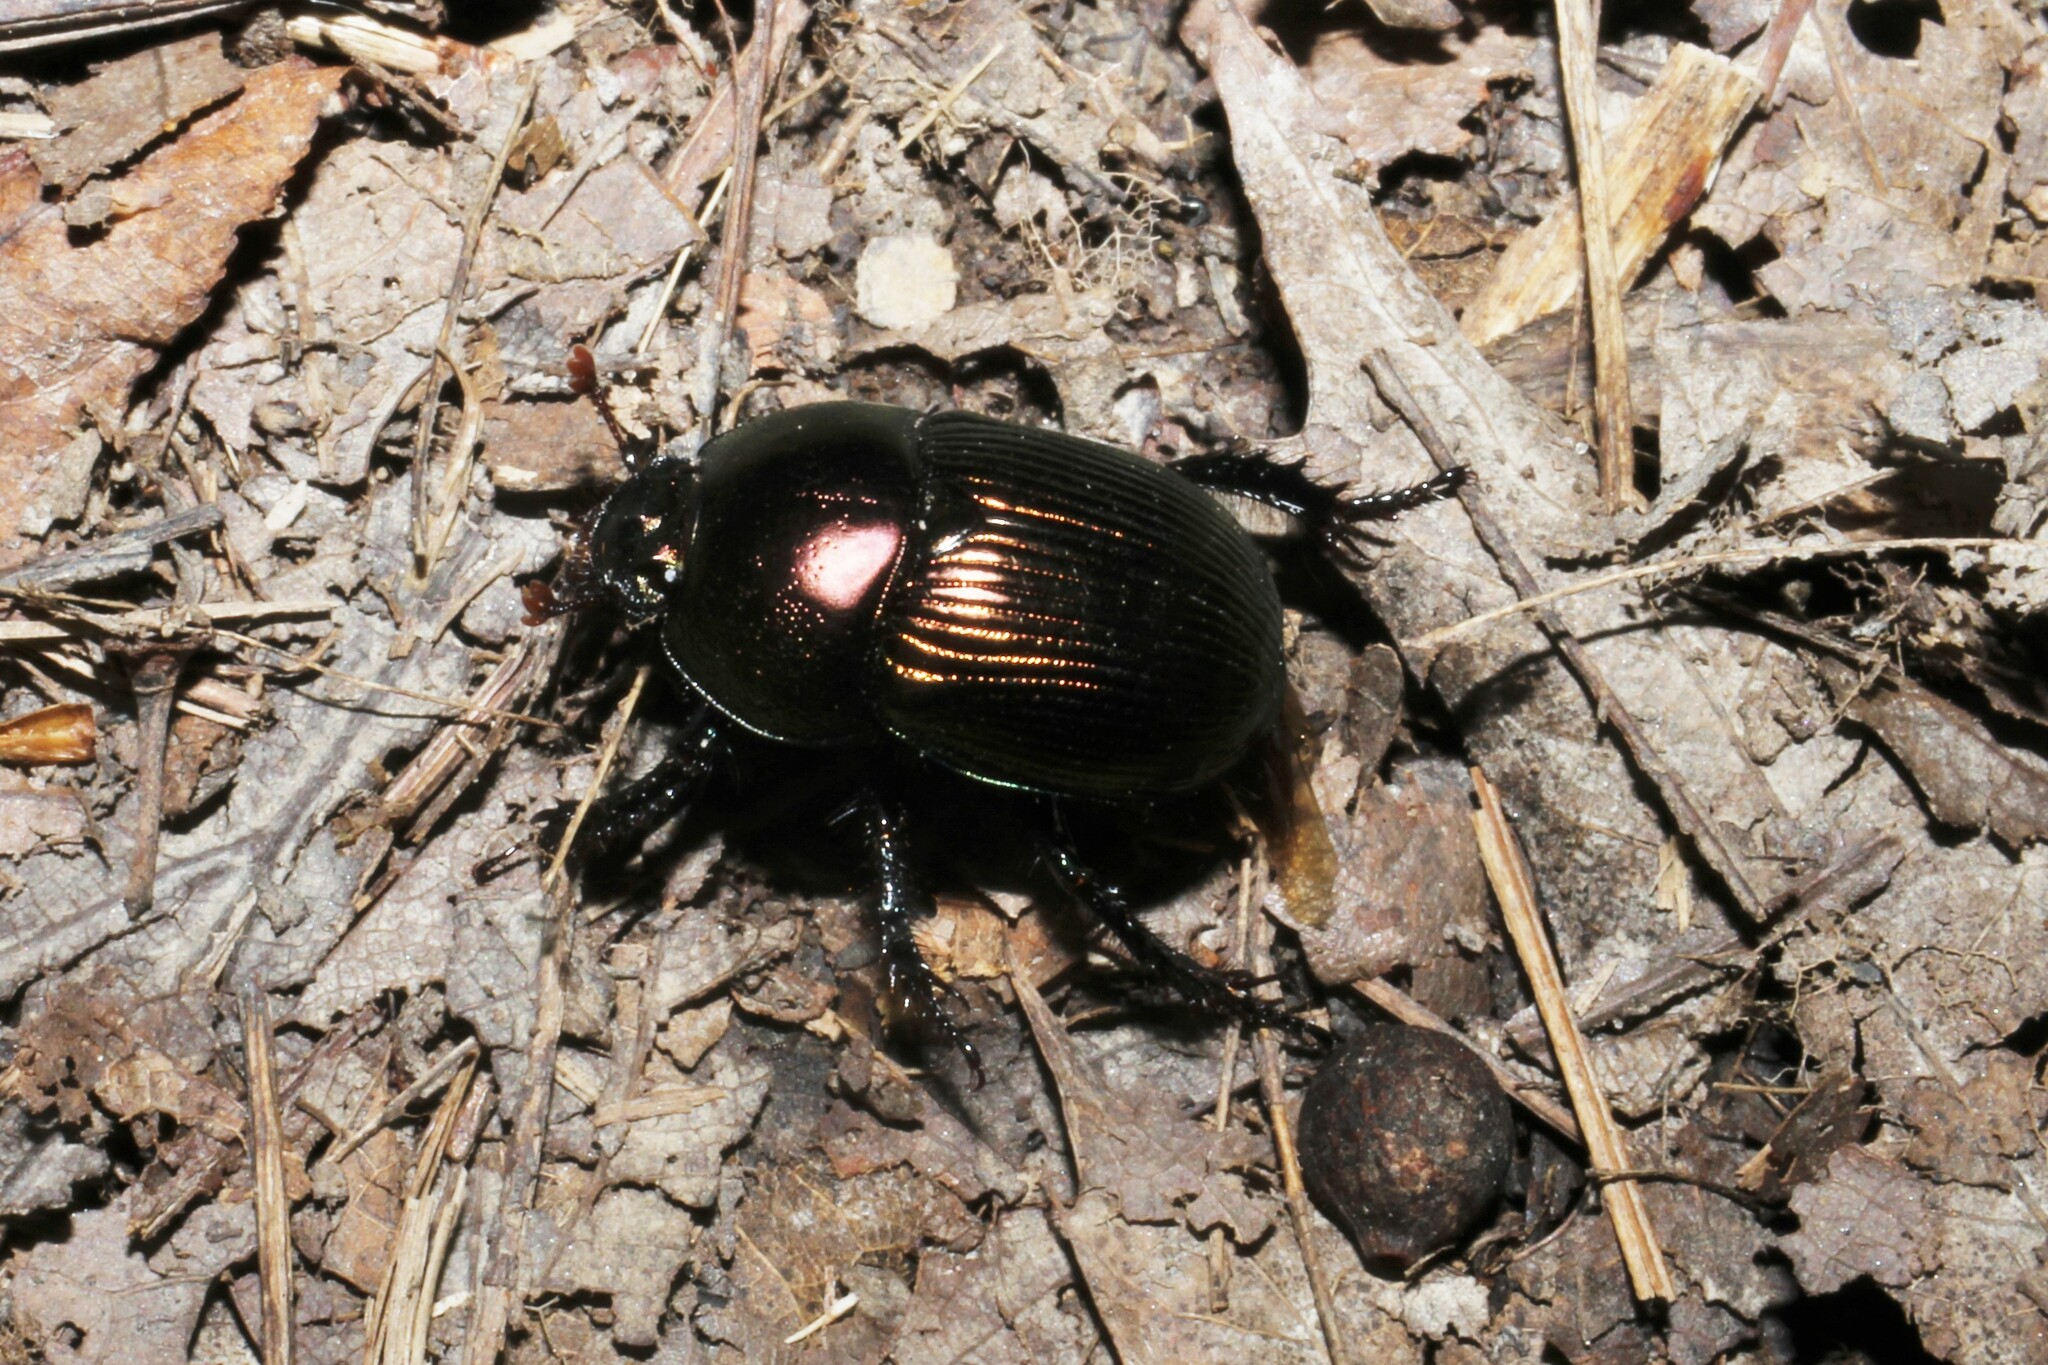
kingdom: Animalia
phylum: Arthropoda
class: Insecta
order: Coleoptera
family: Geotrupidae
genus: Geotrupes
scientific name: Geotrupes splendidus
